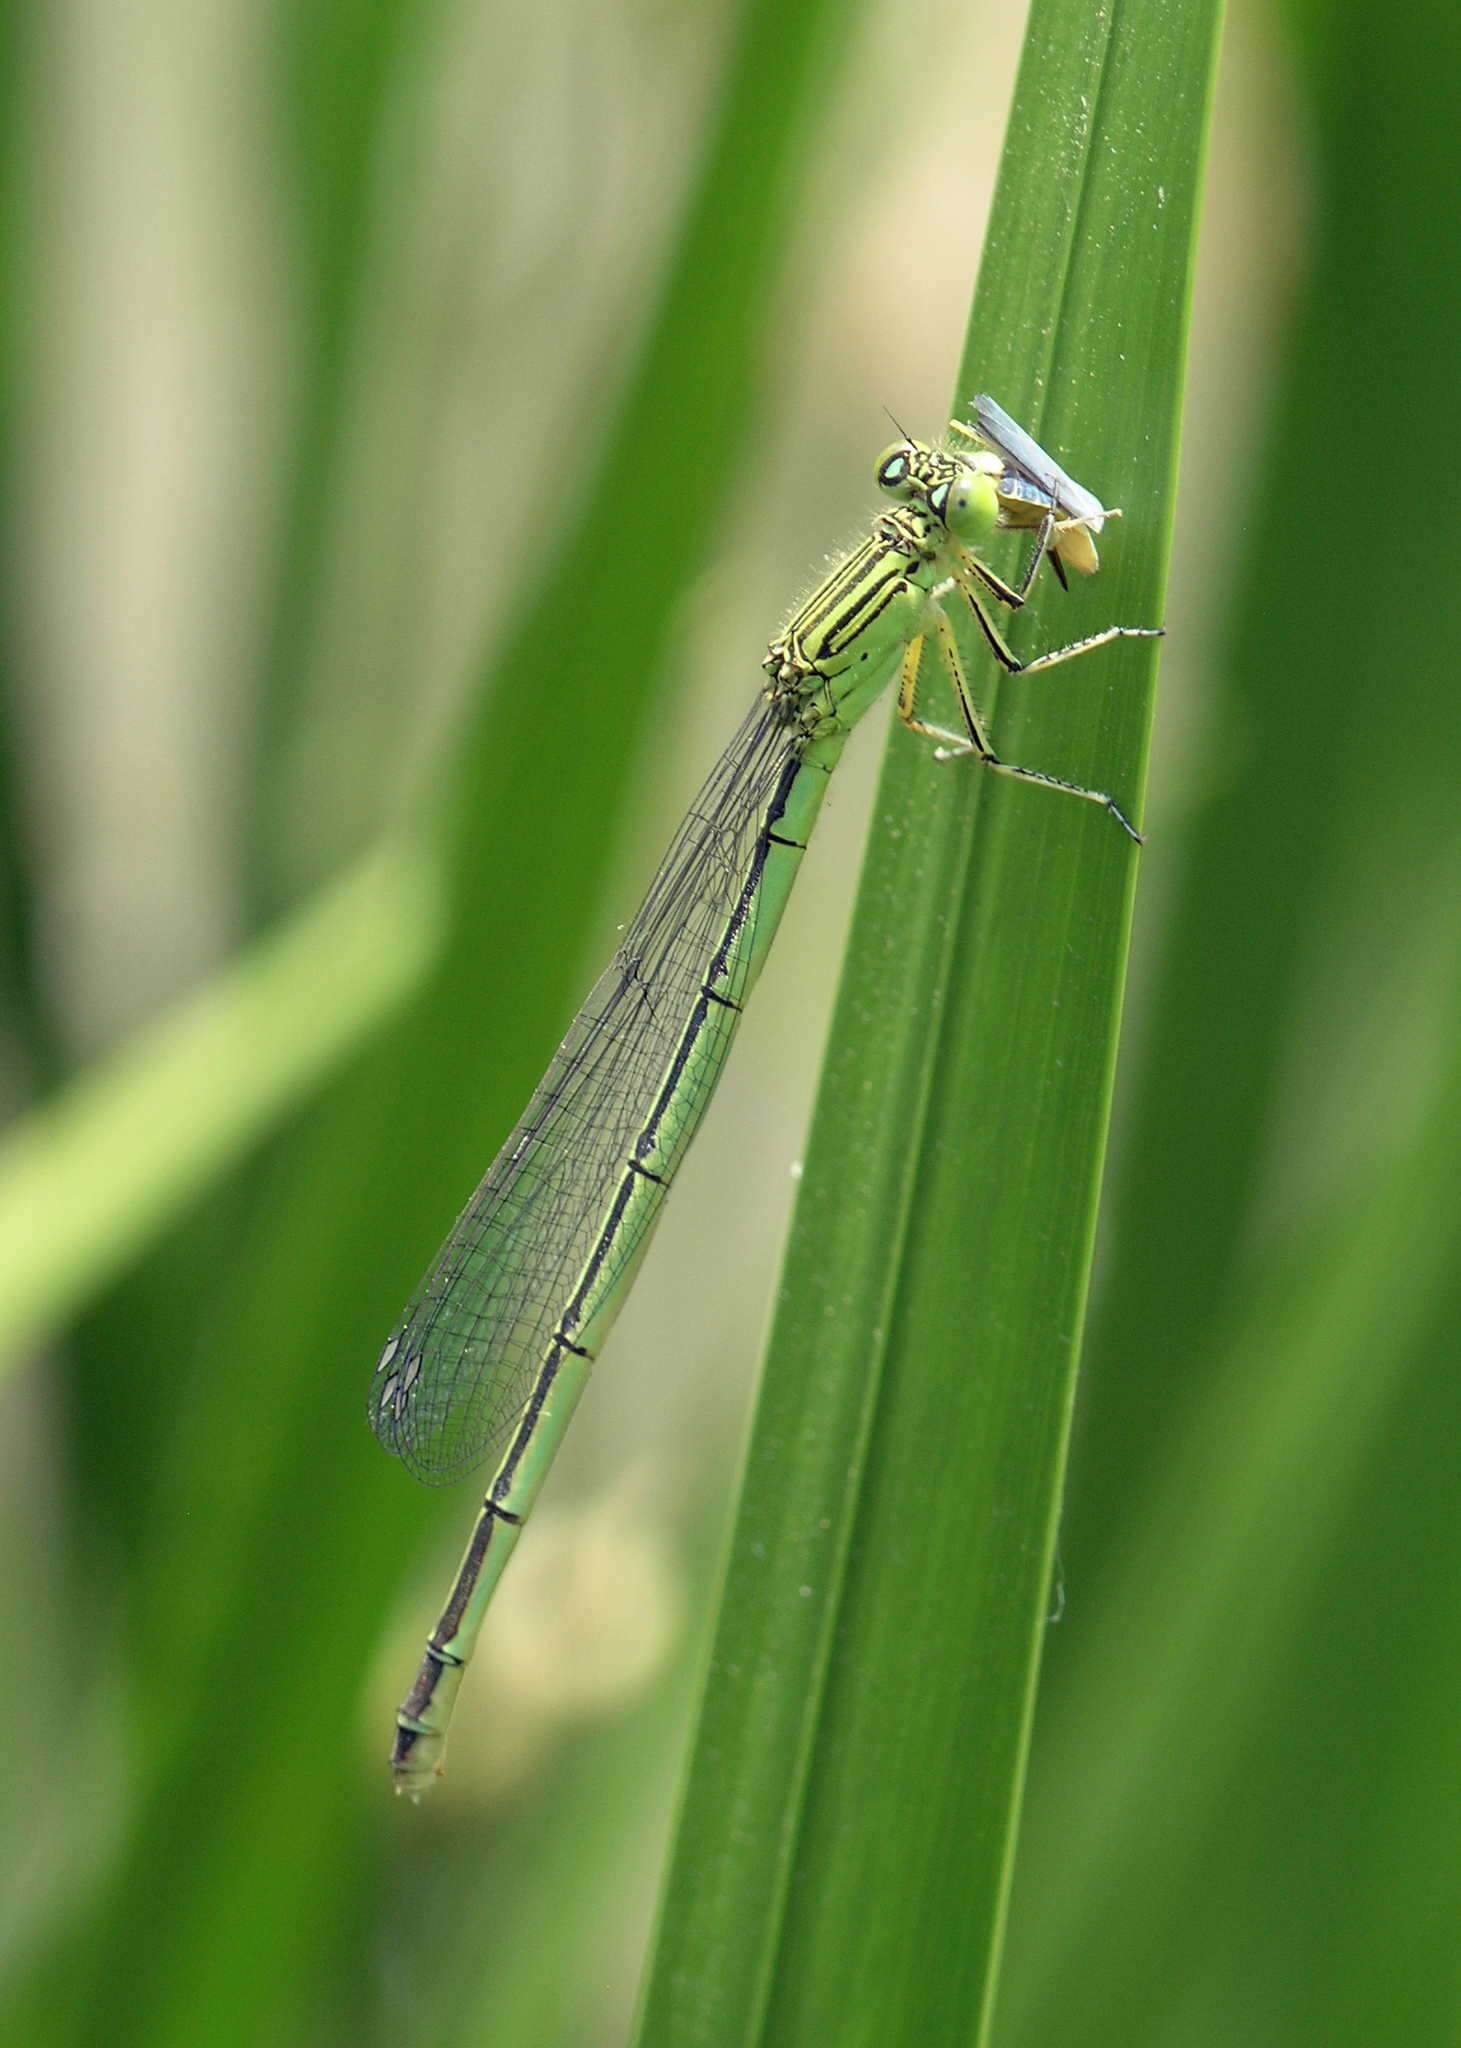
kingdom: Animalia
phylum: Arthropoda
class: Insecta
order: Odonata
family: Coenagrionidae
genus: Paracercion
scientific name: Paracercion plagiosum
